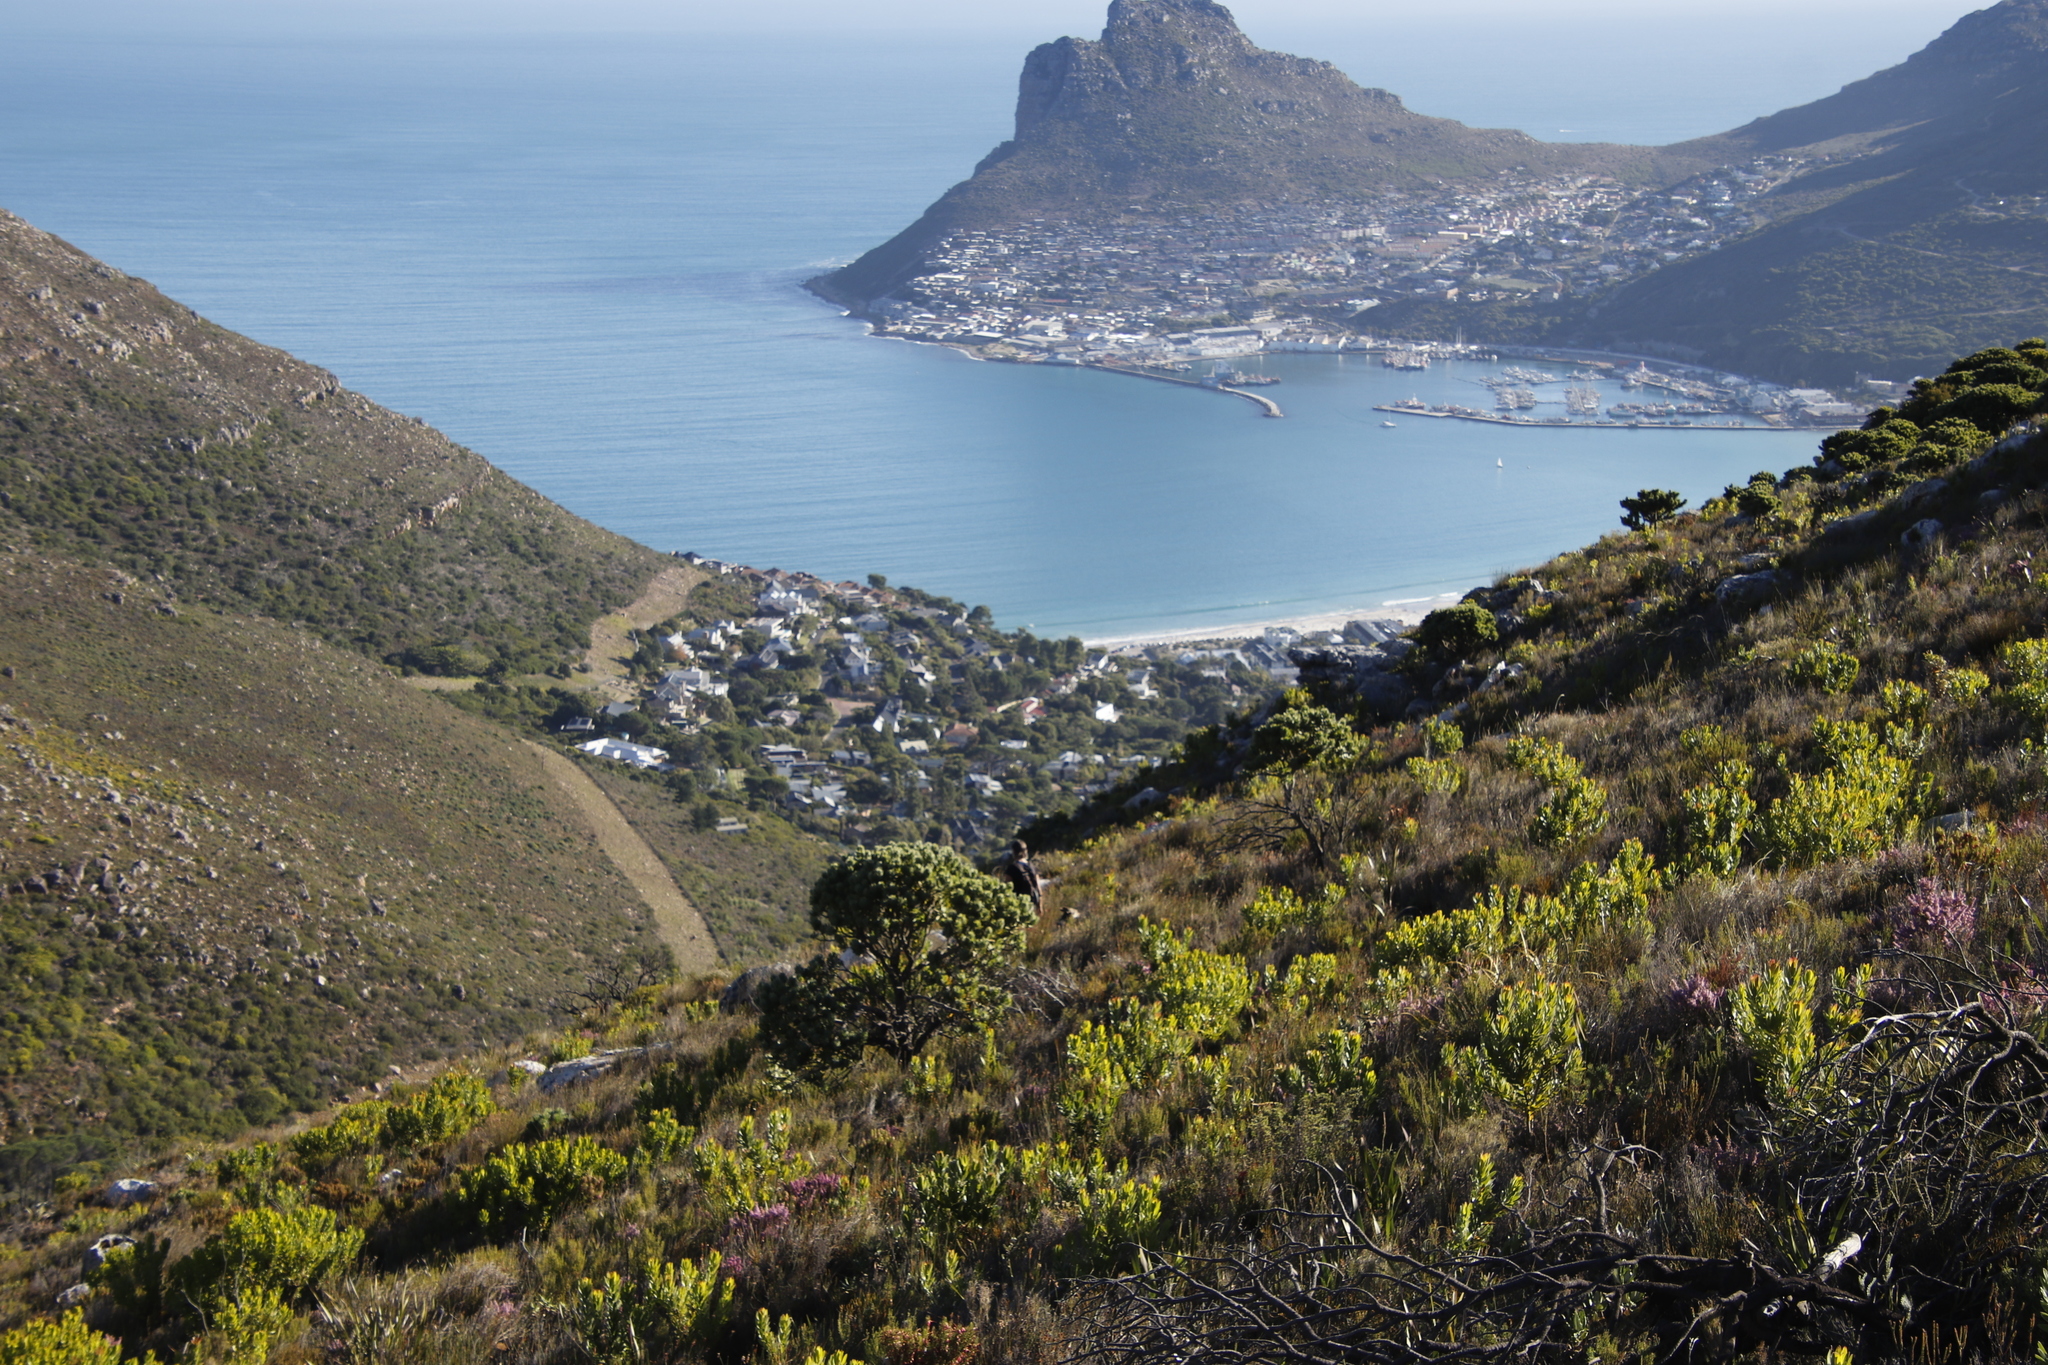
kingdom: Plantae
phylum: Tracheophyta
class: Magnoliopsida
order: Proteales
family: Proteaceae
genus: Leucospermum
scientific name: Leucospermum conocarpodendron
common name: Tree pincushion
